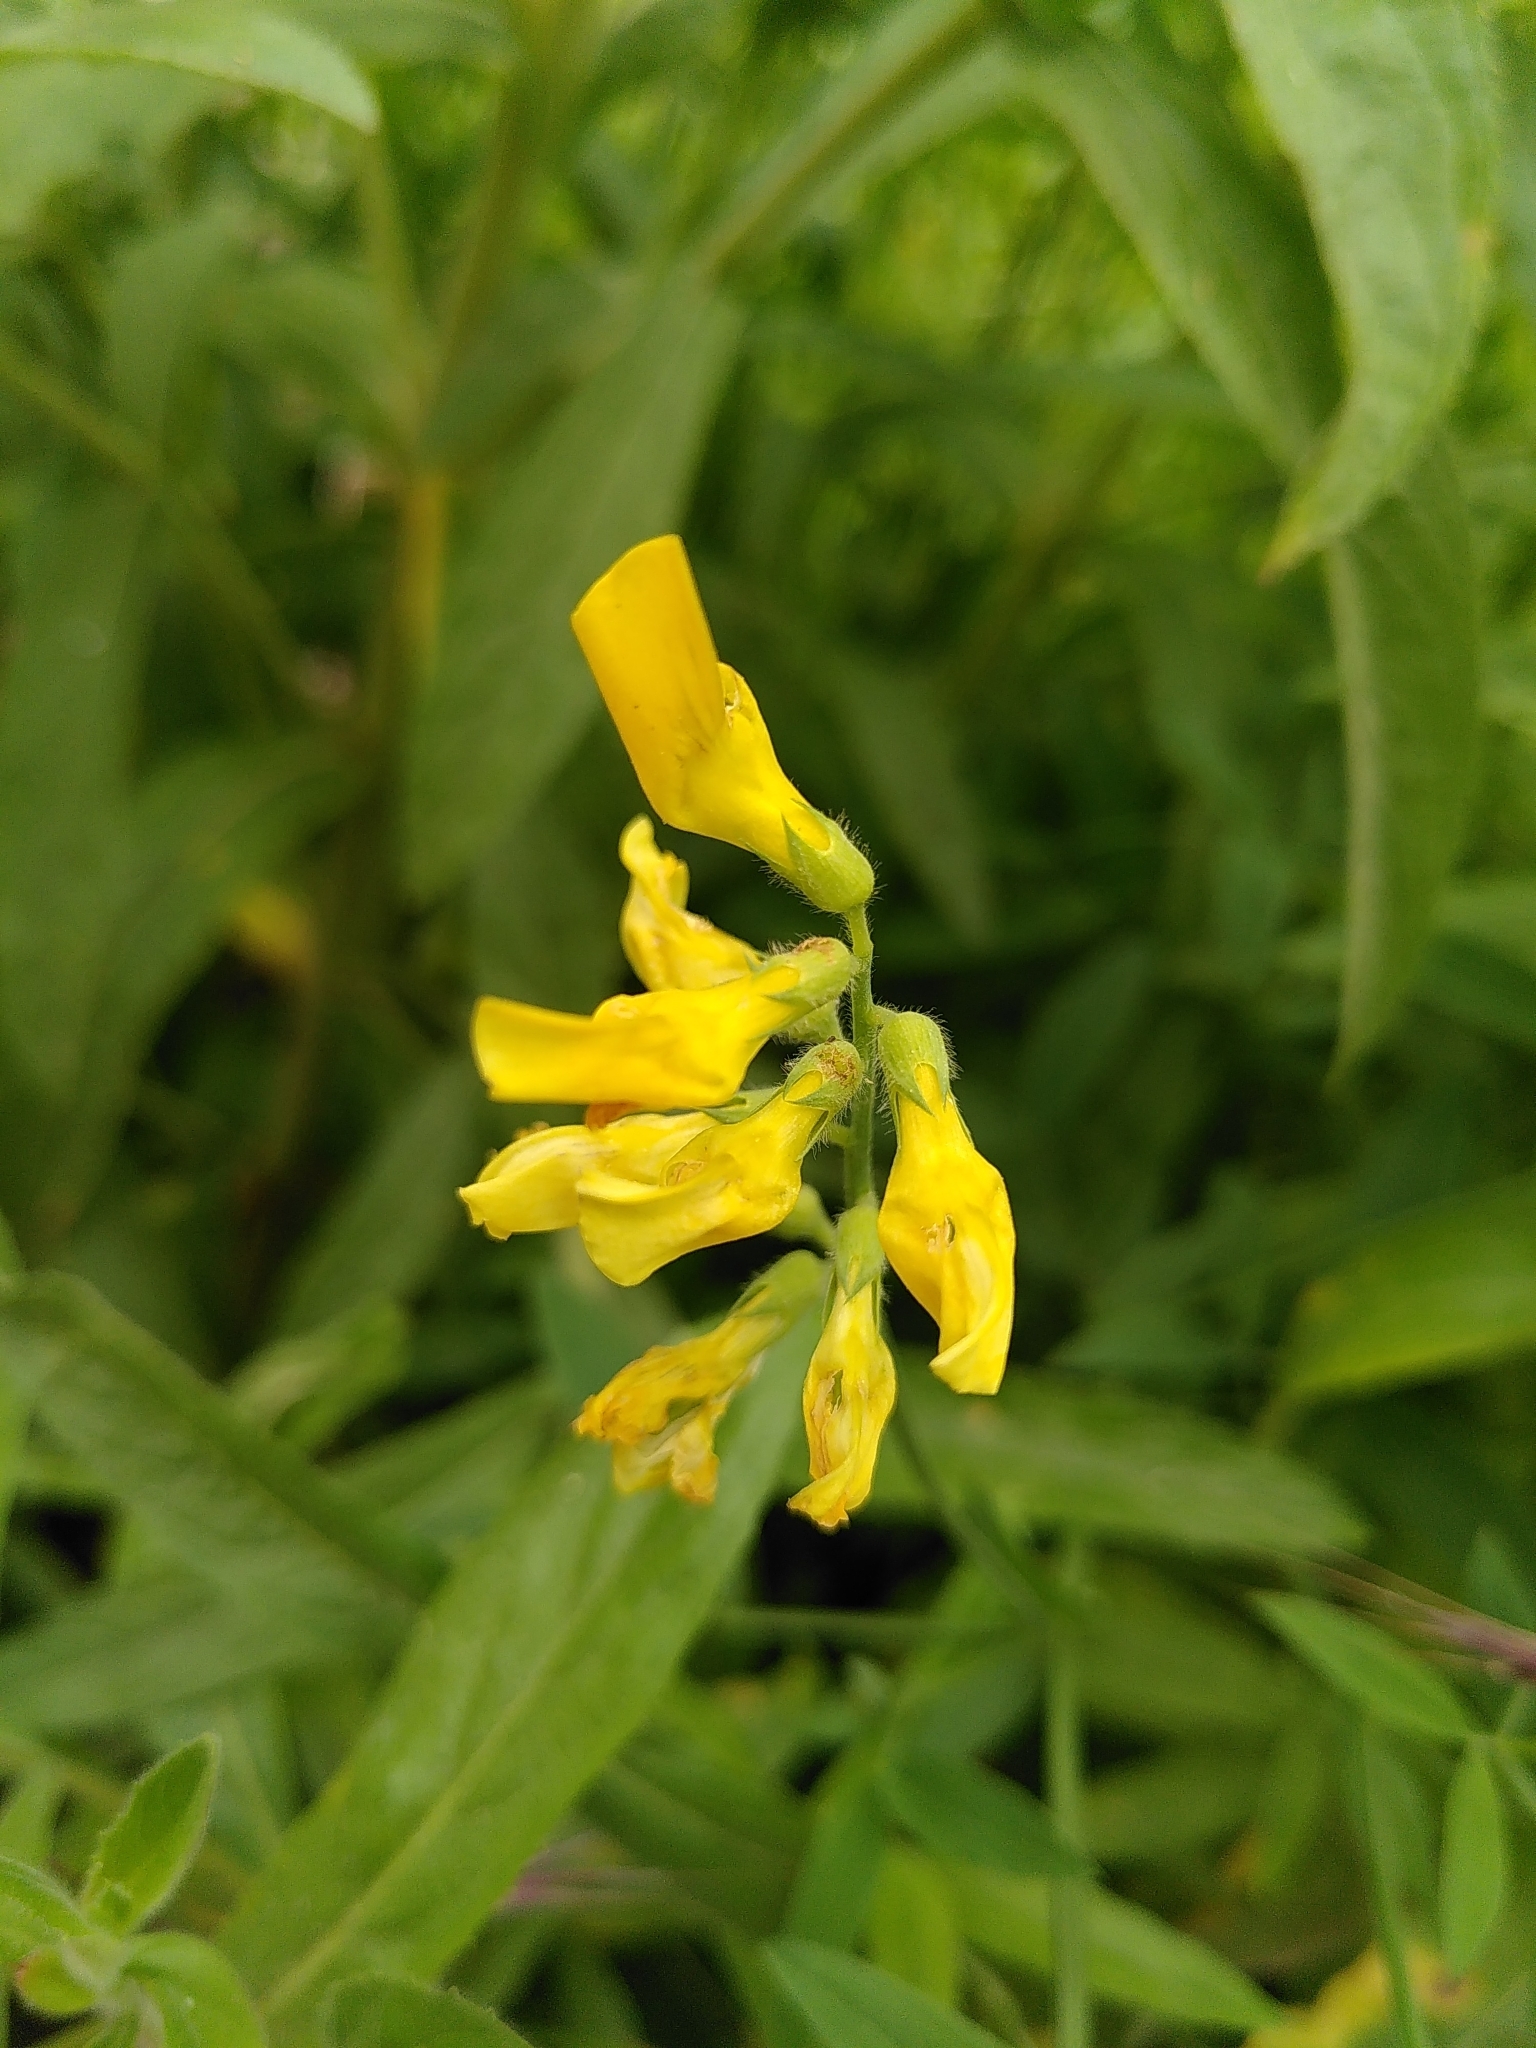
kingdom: Plantae
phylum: Tracheophyta
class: Magnoliopsida
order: Fabales
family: Fabaceae
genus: Lathyrus
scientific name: Lathyrus pratensis
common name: Meadow vetchling
